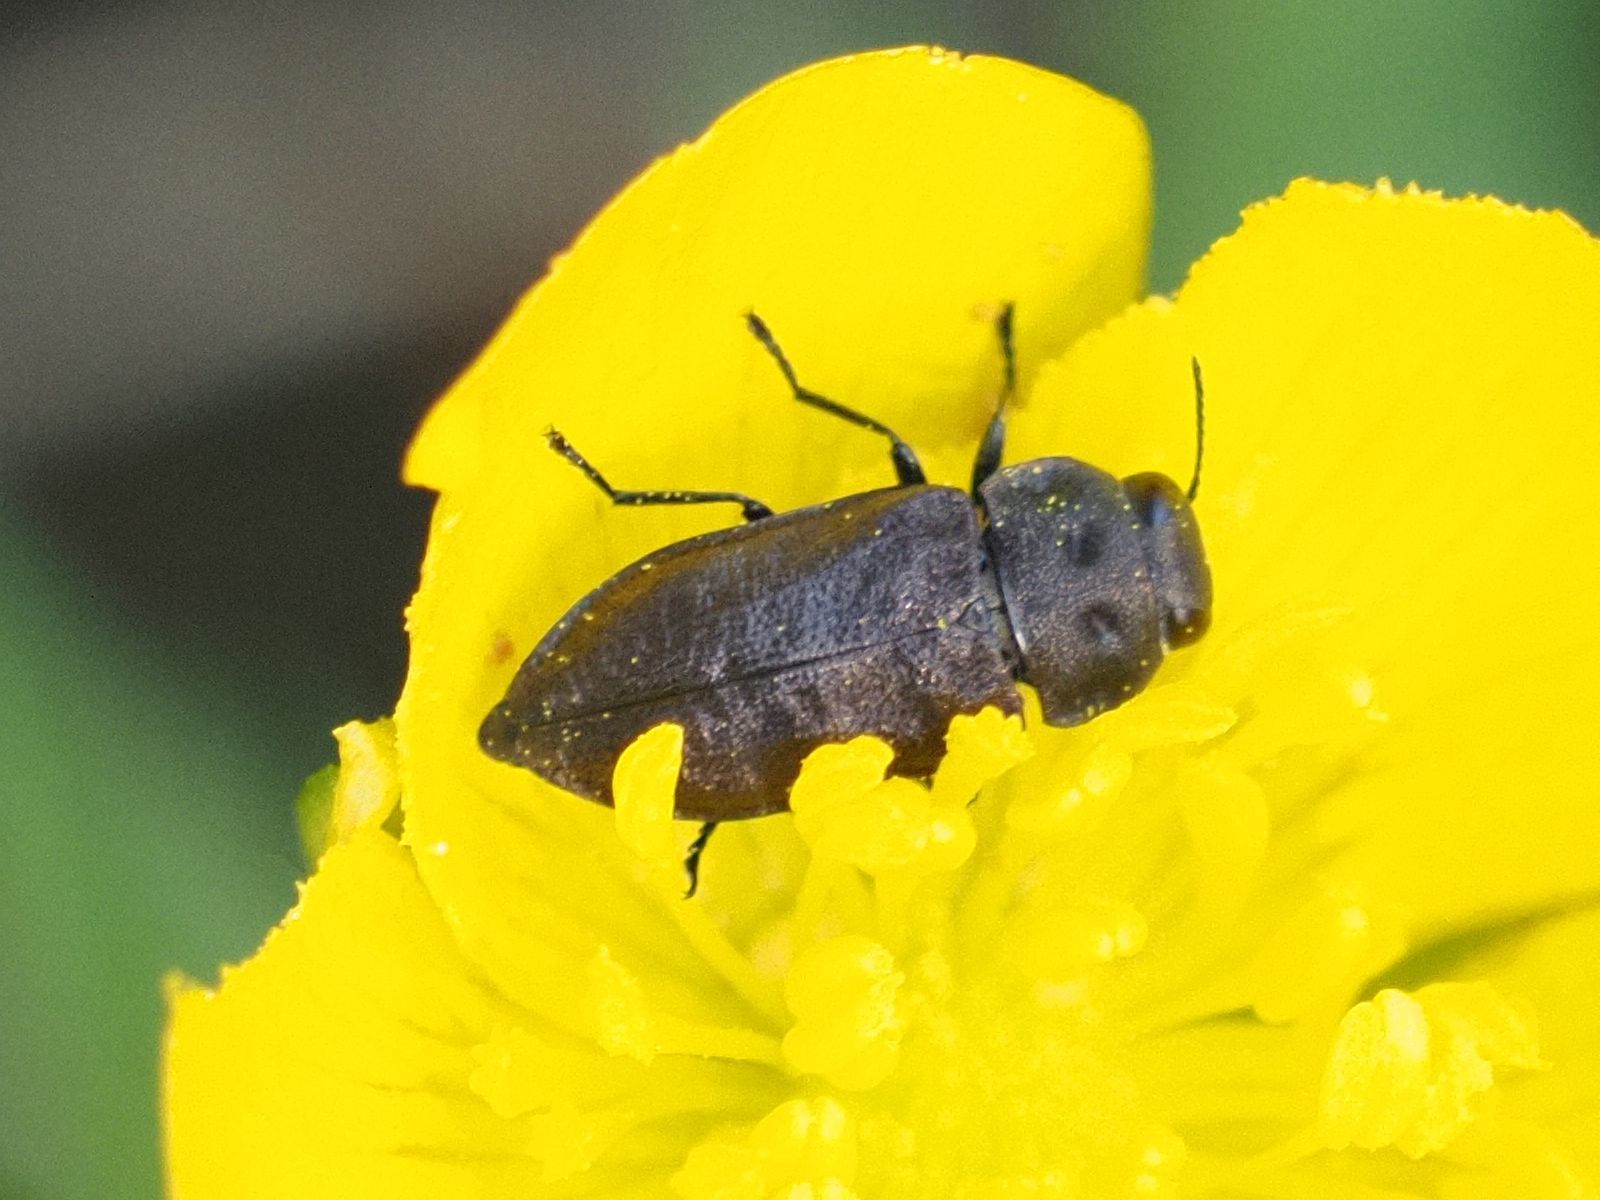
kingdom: Animalia
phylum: Arthropoda
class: Insecta
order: Coleoptera
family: Buprestidae
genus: Anthaxia
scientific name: Anthaxia quadripunctata
